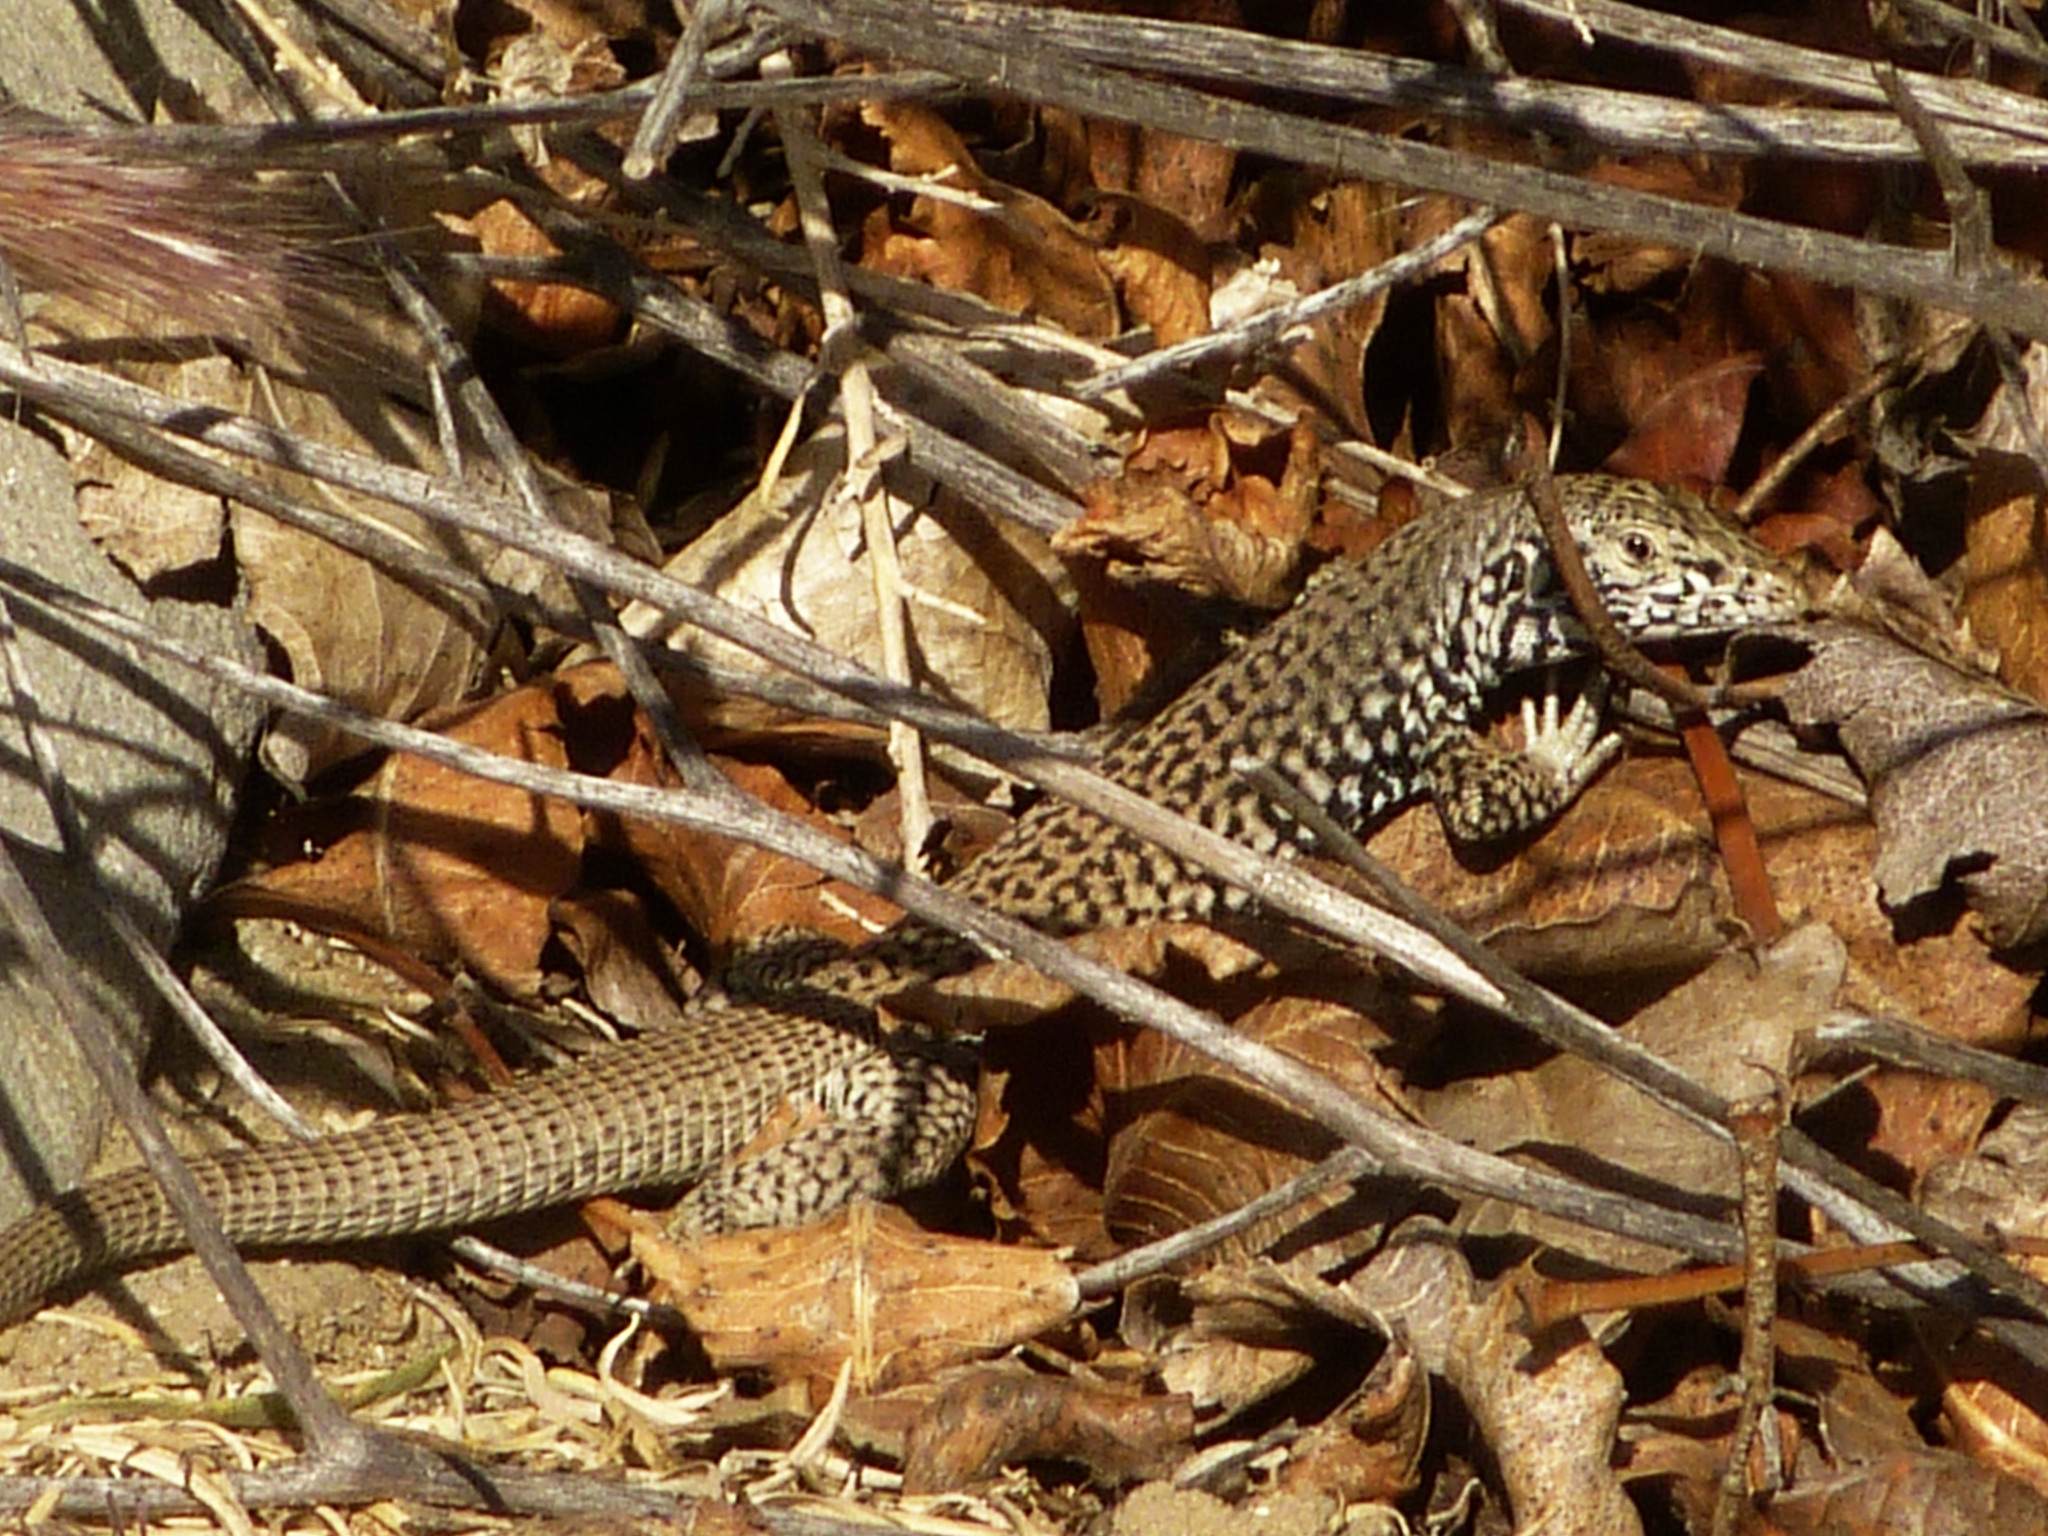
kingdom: Animalia
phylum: Chordata
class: Squamata
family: Teiidae
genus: Aspidoscelis
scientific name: Aspidoscelis tigris
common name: Tiger whiptail
